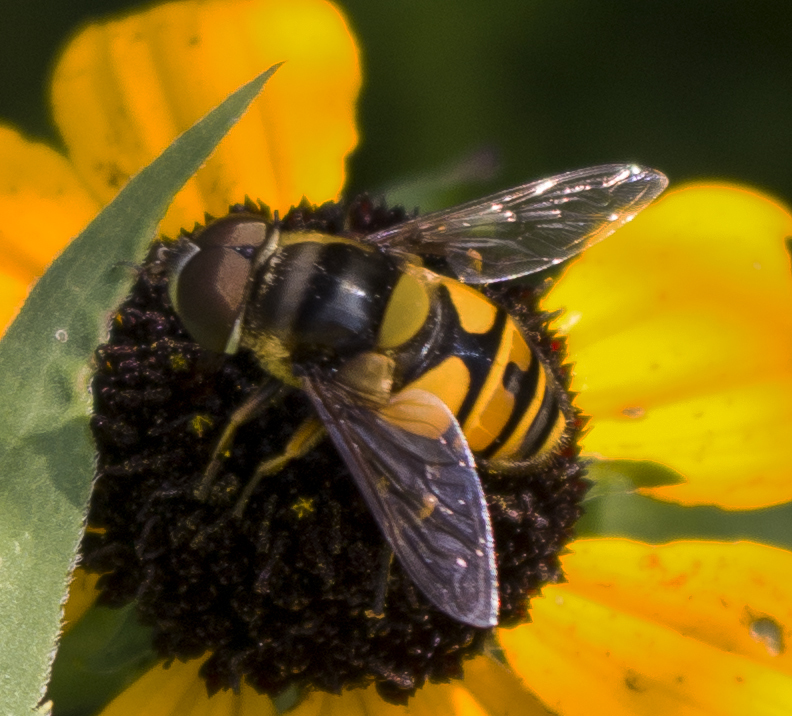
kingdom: Animalia
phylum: Arthropoda
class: Insecta
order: Diptera
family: Syrphidae
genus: Eristalis
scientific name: Eristalis transversa
